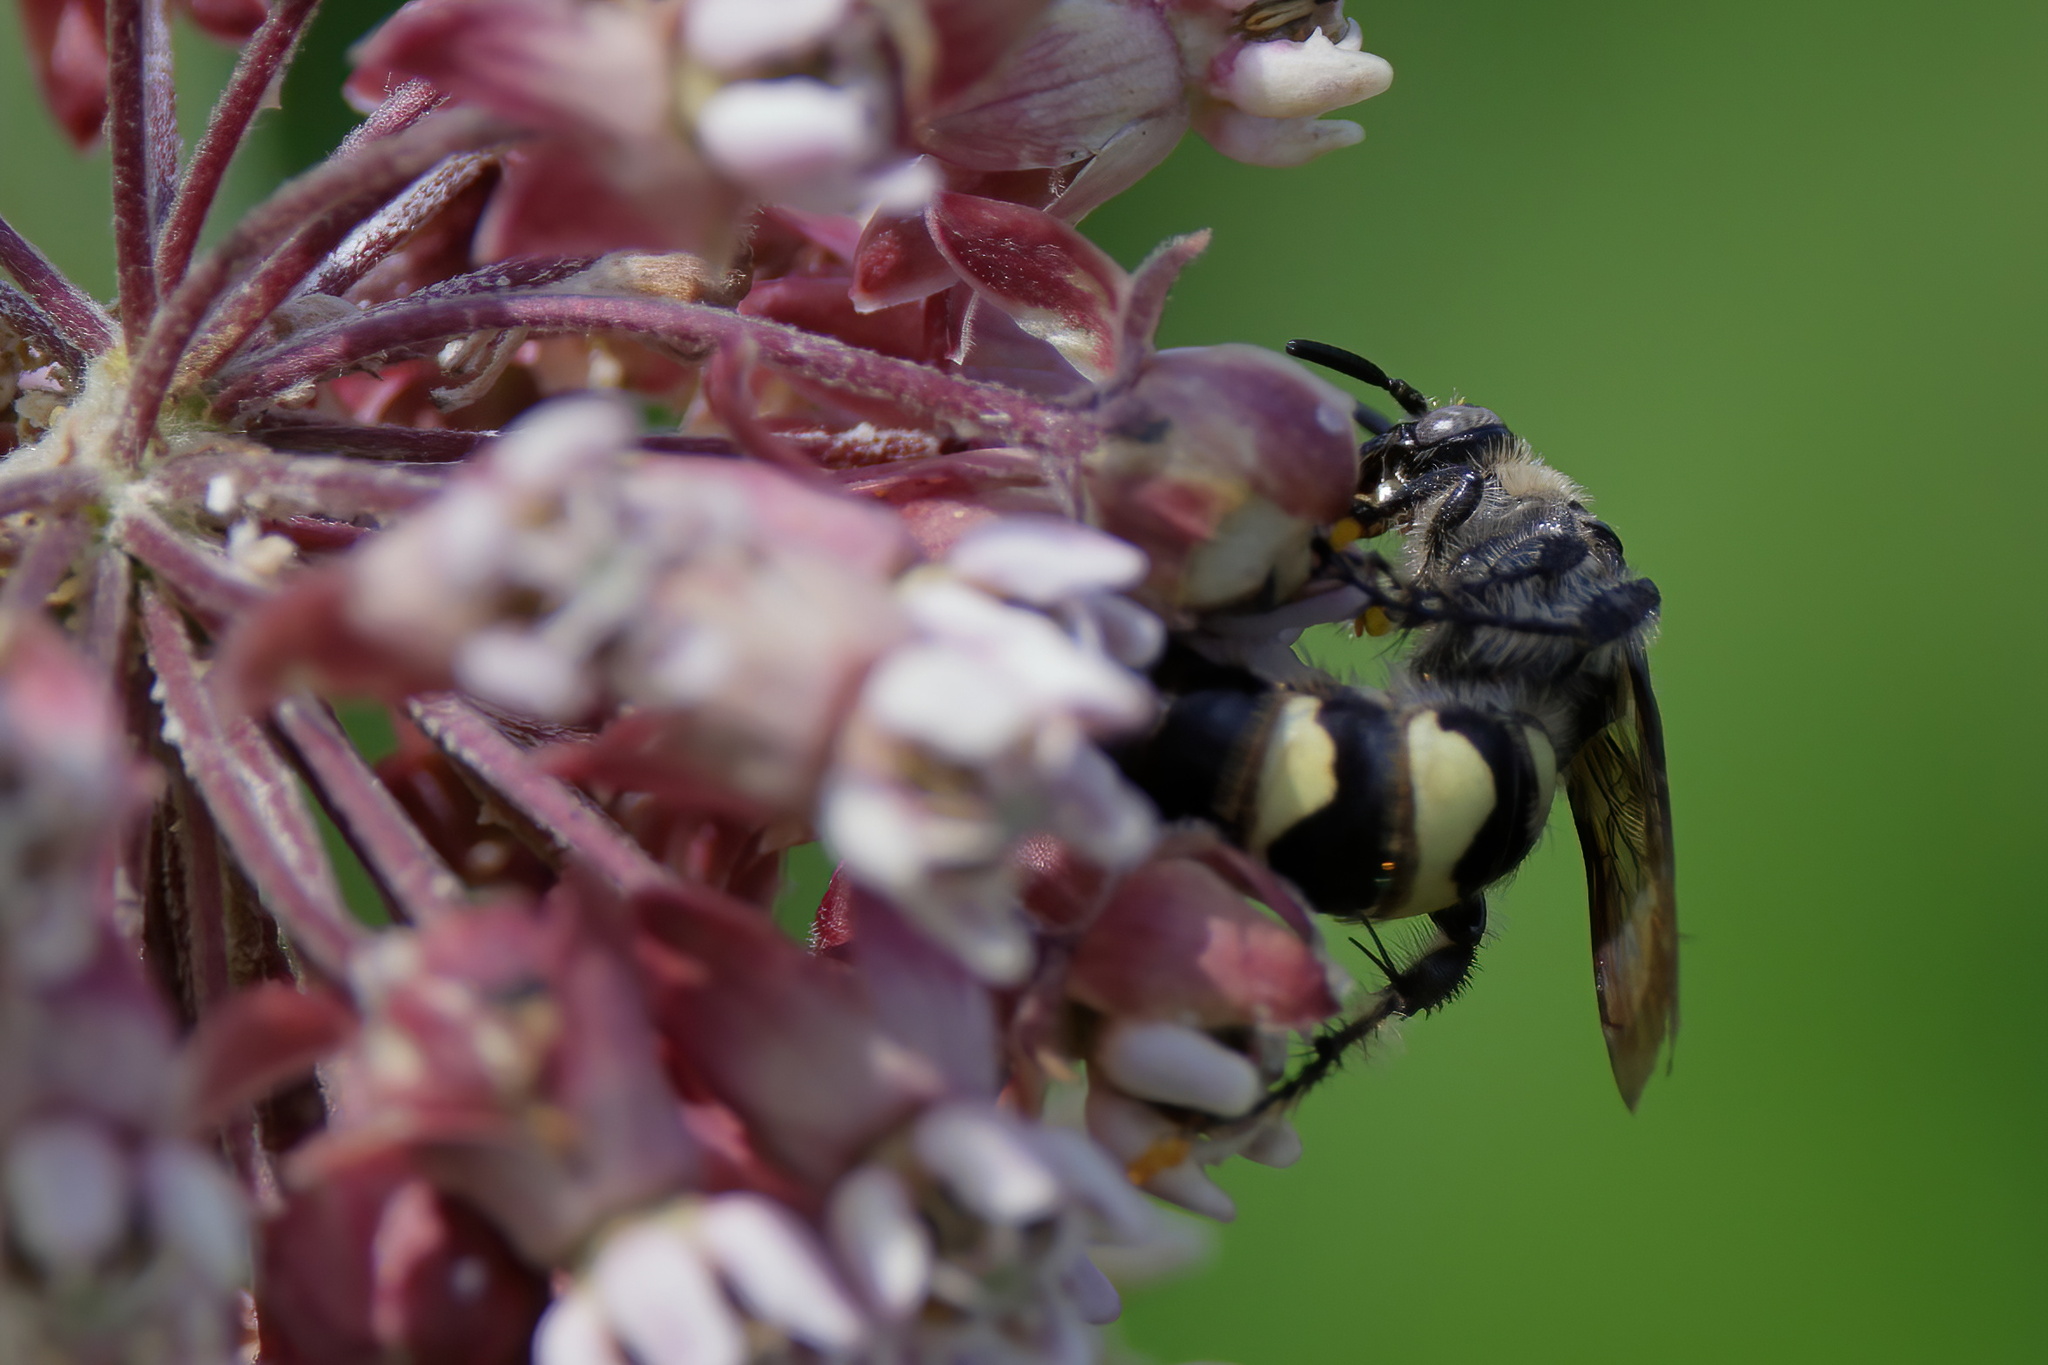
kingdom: Animalia
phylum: Arthropoda
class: Insecta
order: Hymenoptera
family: Scoliidae
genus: Dielis
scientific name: Dielis
